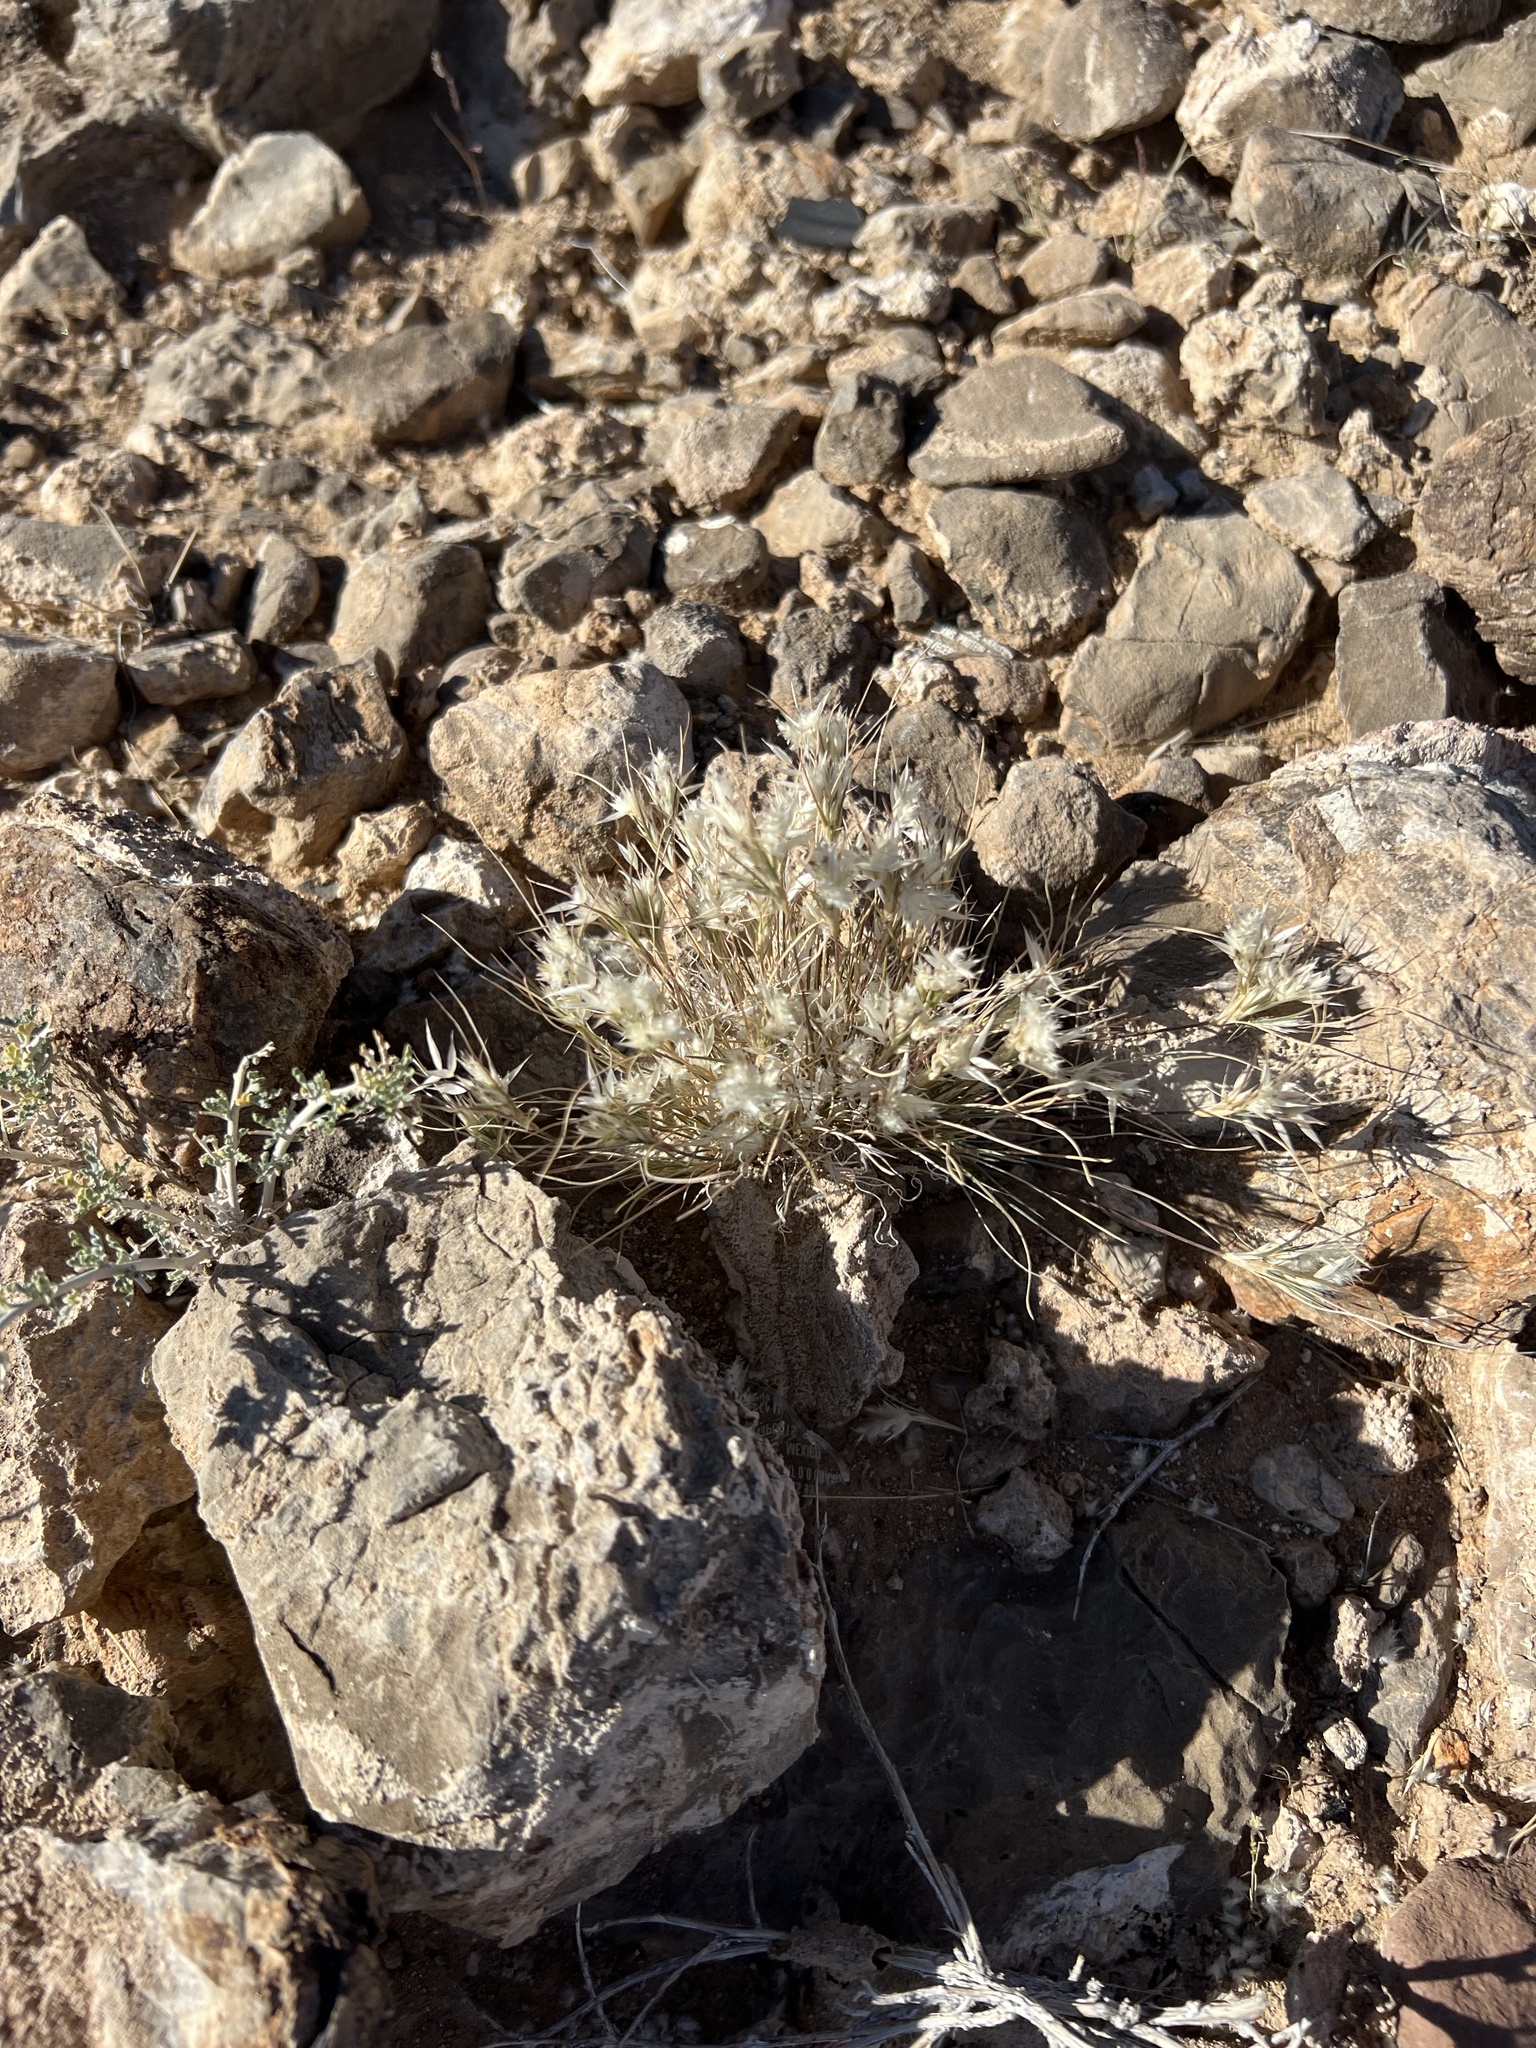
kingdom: Plantae
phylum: Tracheophyta
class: Liliopsida
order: Poales
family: Poaceae
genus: Dasyochloa
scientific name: Dasyochloa pulchella
